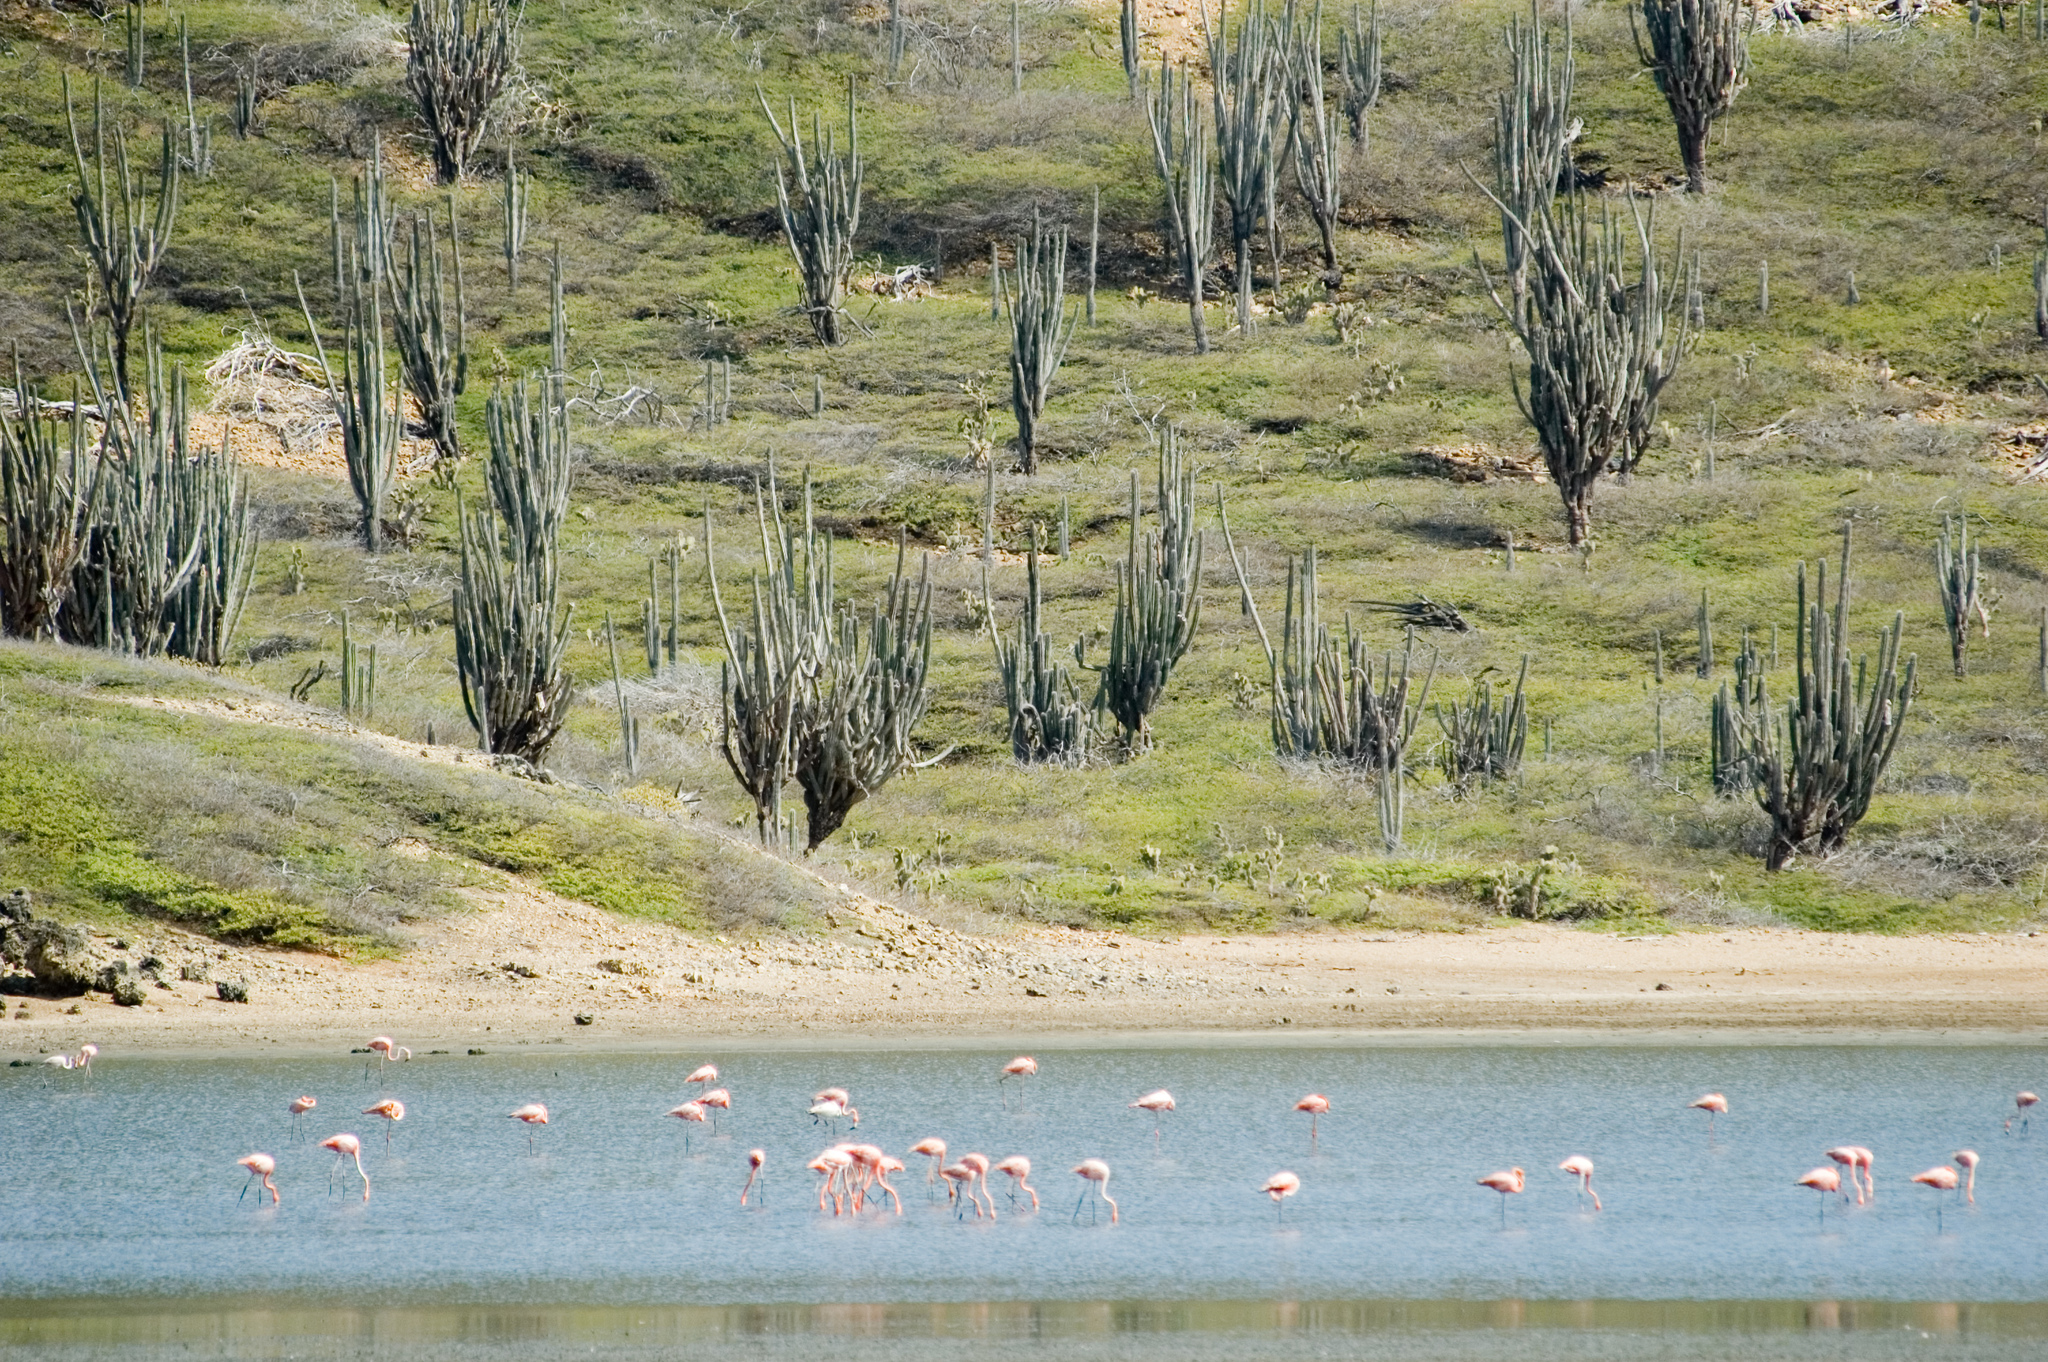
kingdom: Animalia
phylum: Chordata
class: Aves
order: Phoenicopteriformes
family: Phoenicopteridae
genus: Phoenicopterus
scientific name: Phoenicopterus ruber
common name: American flamingo
